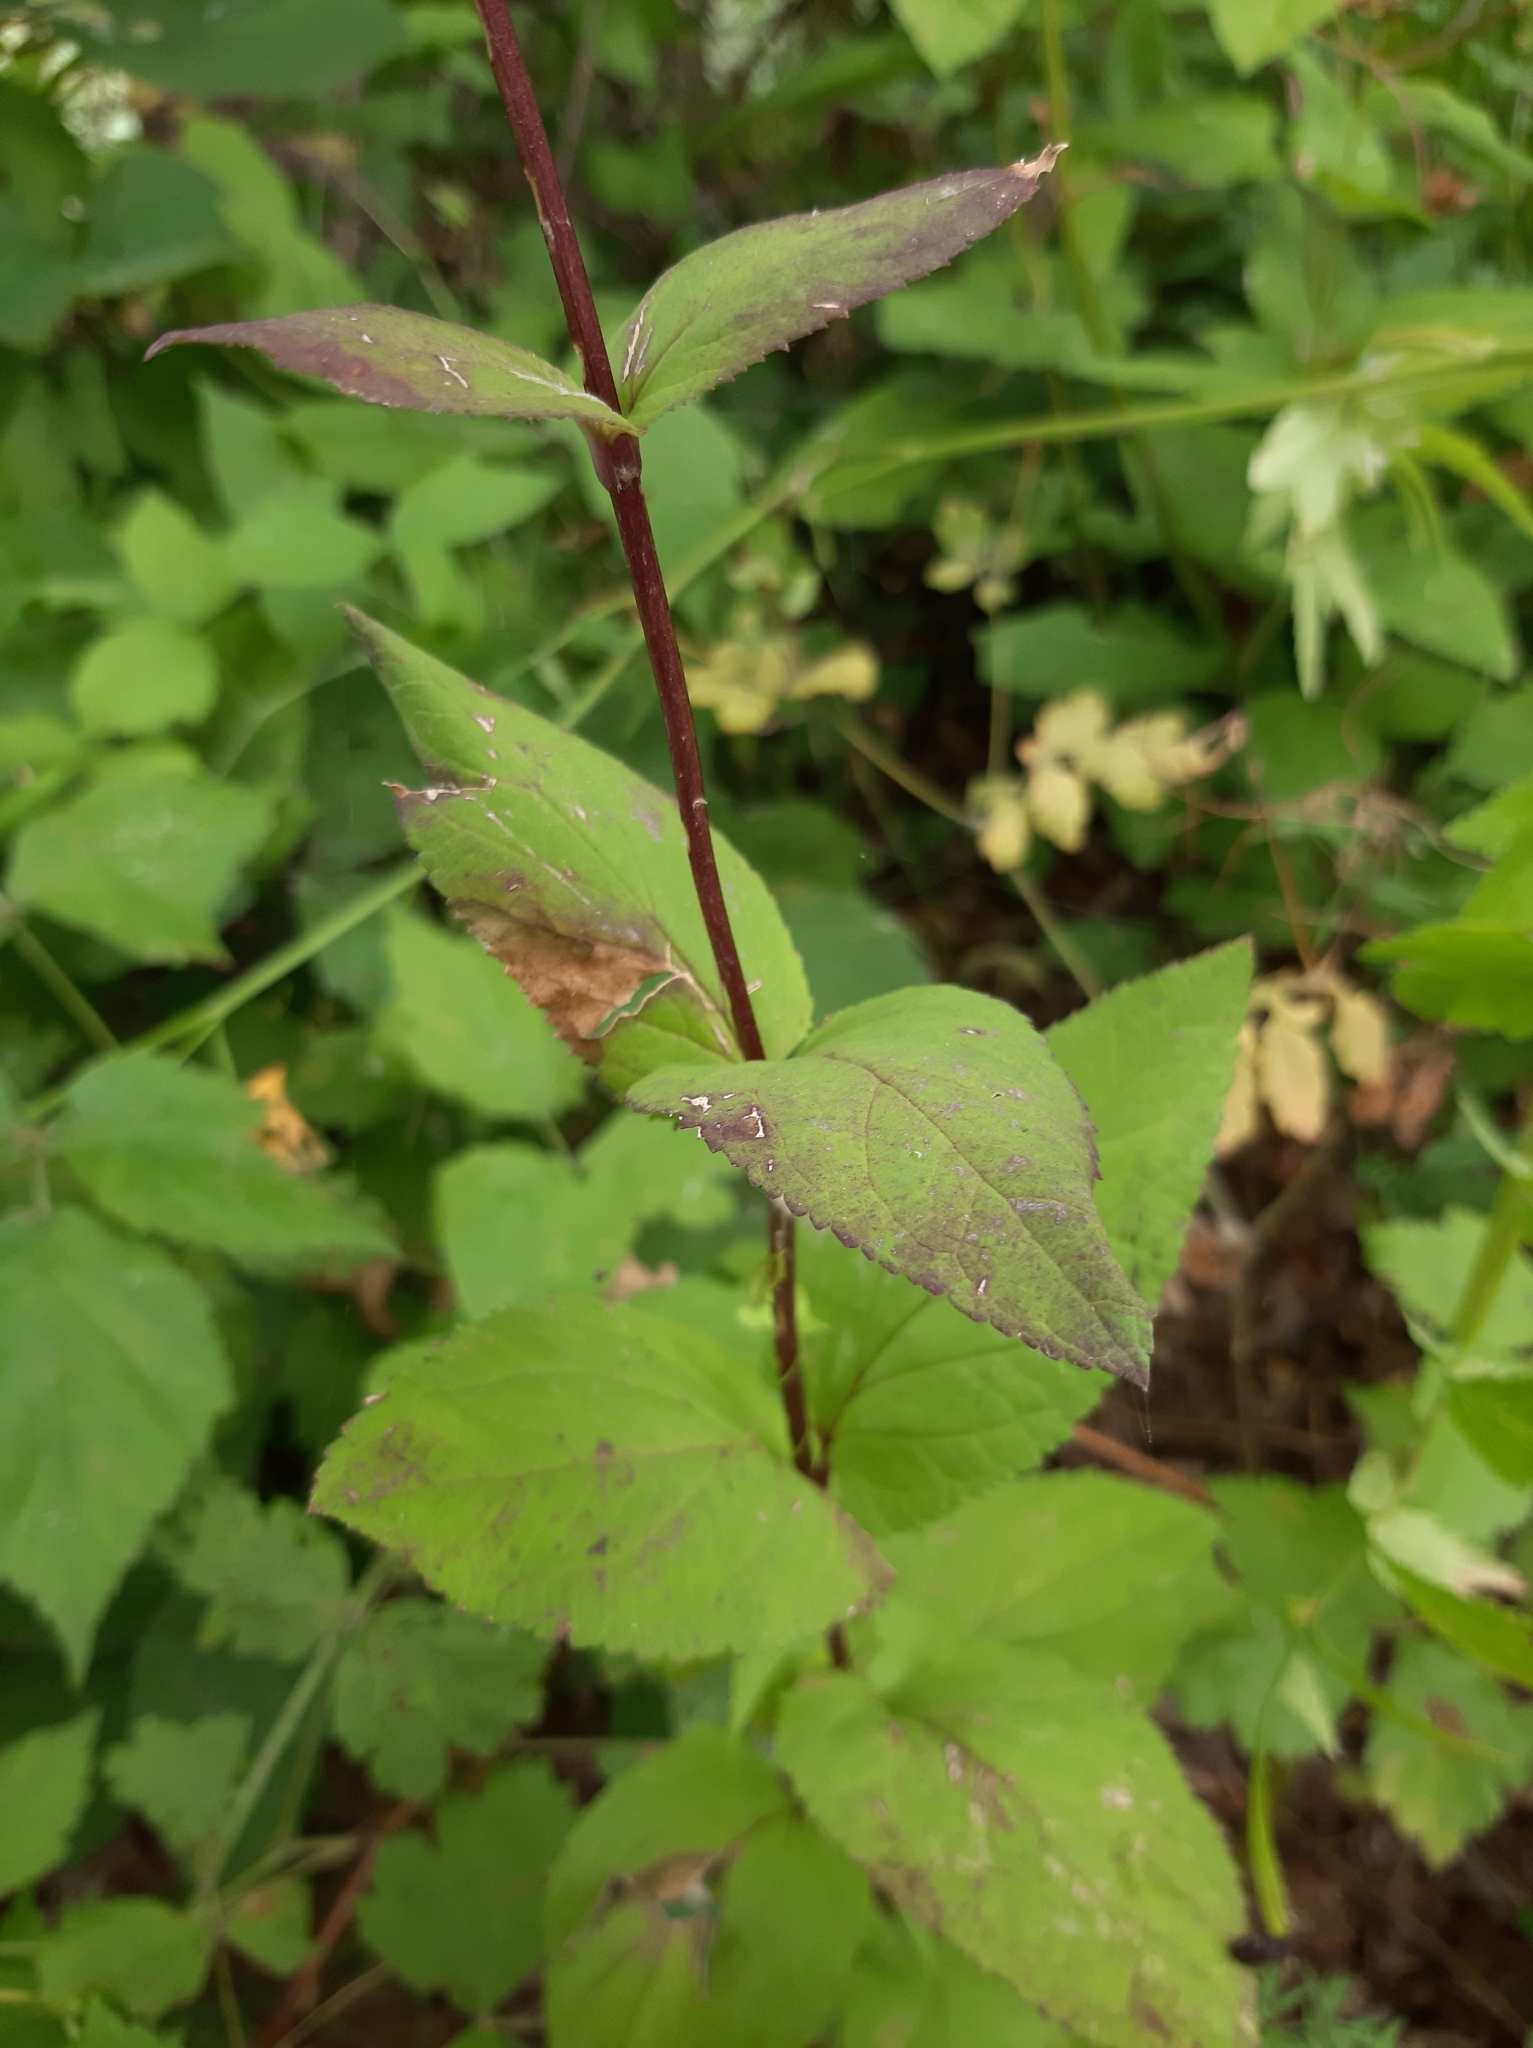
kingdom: Plantae
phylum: Tracheophyta
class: Magnoliopsida
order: Lamiales
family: Scrophulariaceae
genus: Scrophularia
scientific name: Scrophularia nodosa
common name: Common figwort
